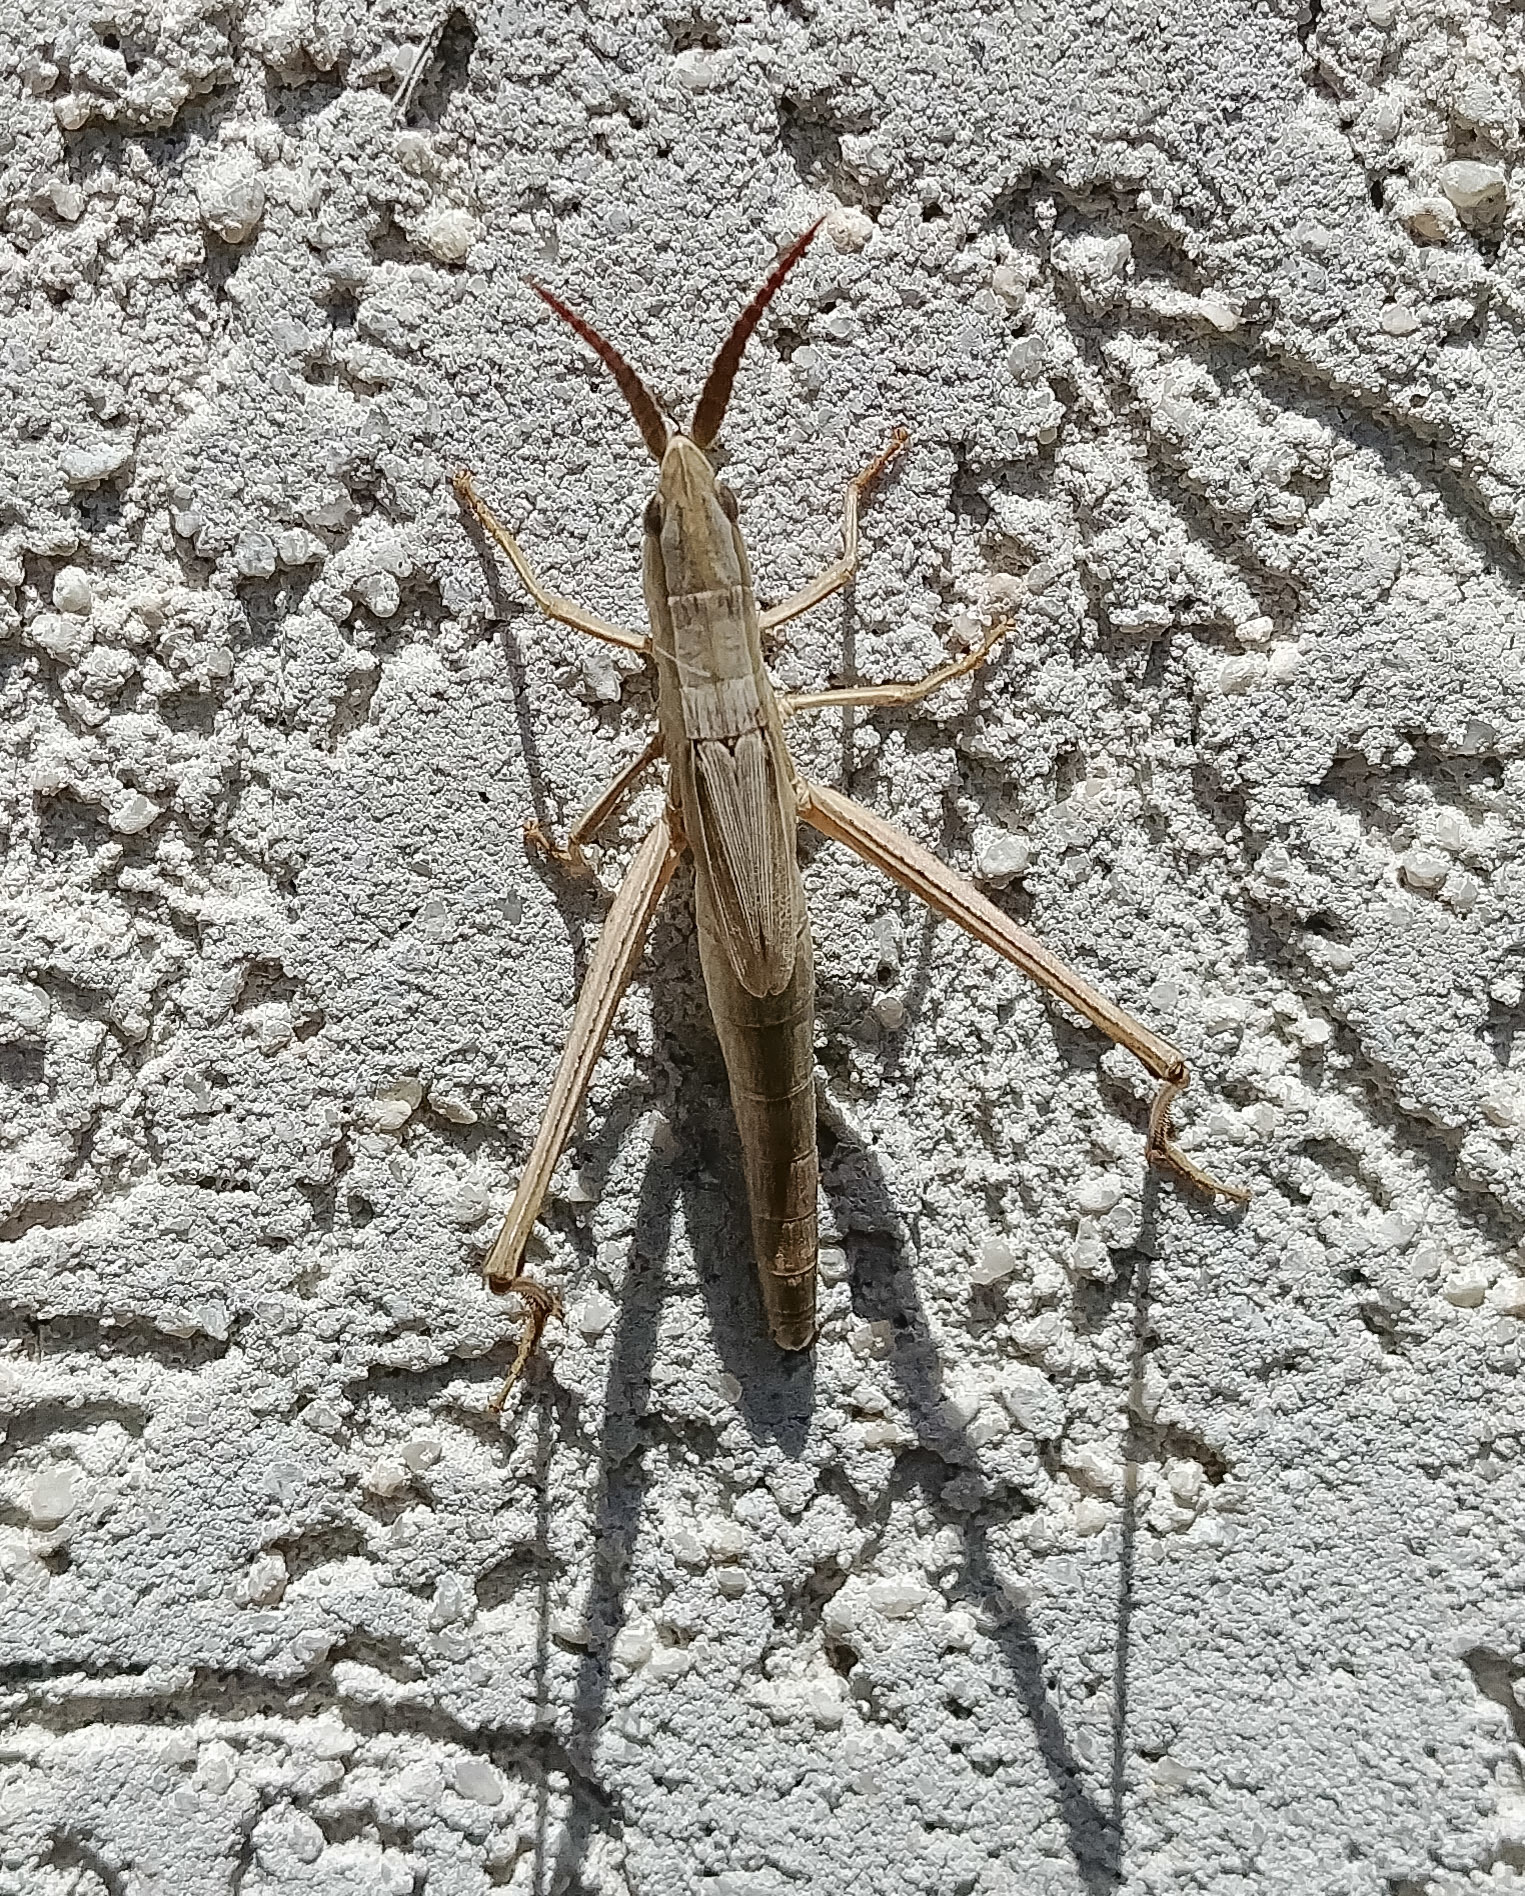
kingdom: Animalia
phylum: Arthropoda
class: Insecta
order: Orthoptera
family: Acrididae
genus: Pseudopomala
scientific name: Pseudopomala brachyptera
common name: Bunchgrass grasshopper
